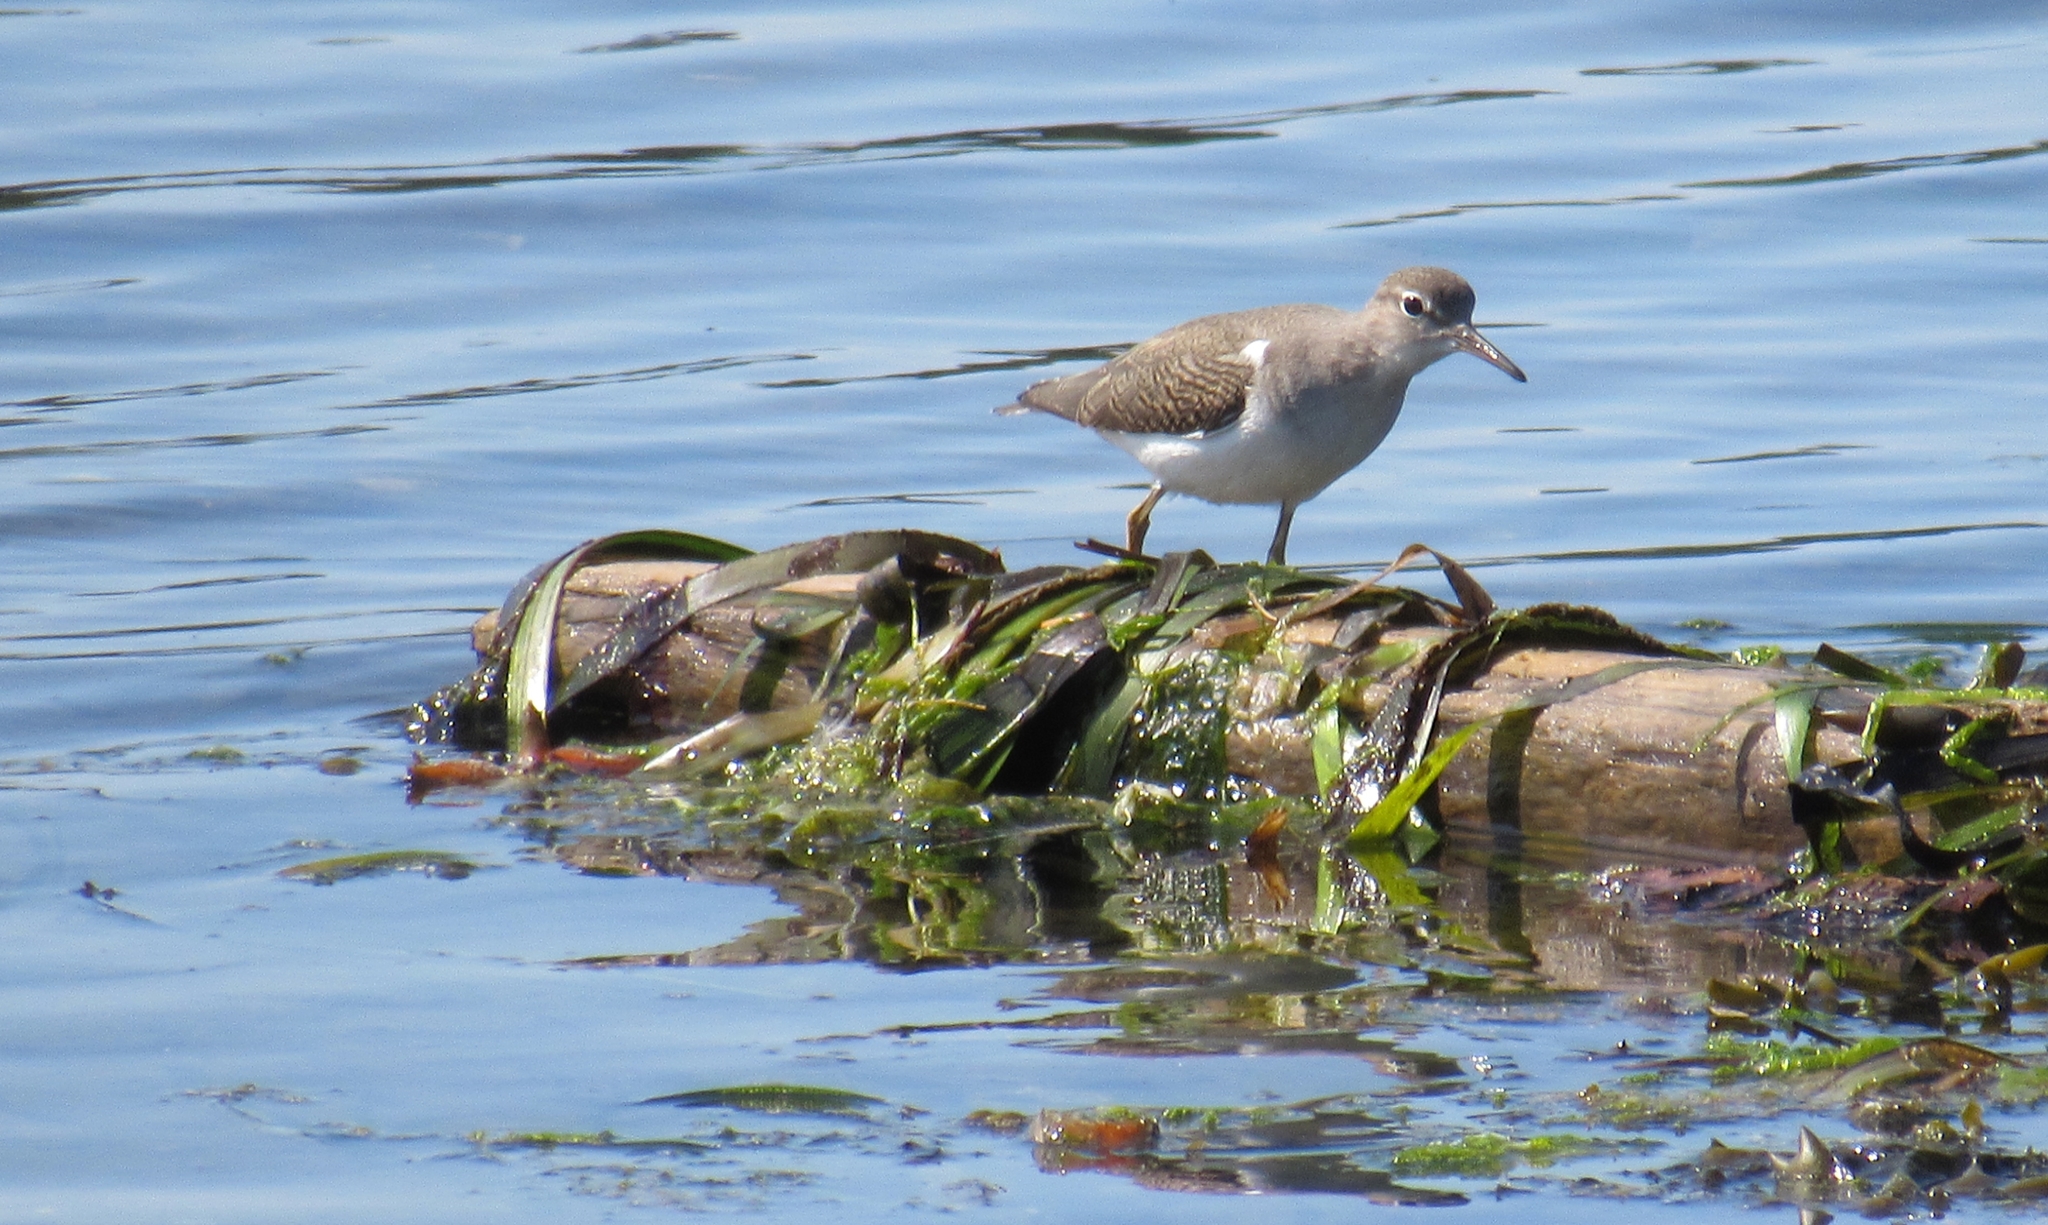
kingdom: Animalia
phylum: Chordata
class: Aves
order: Charadriiformes
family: Scolopacidae
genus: Actitis
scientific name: Actitis macularius
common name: Spotted sandpiper
